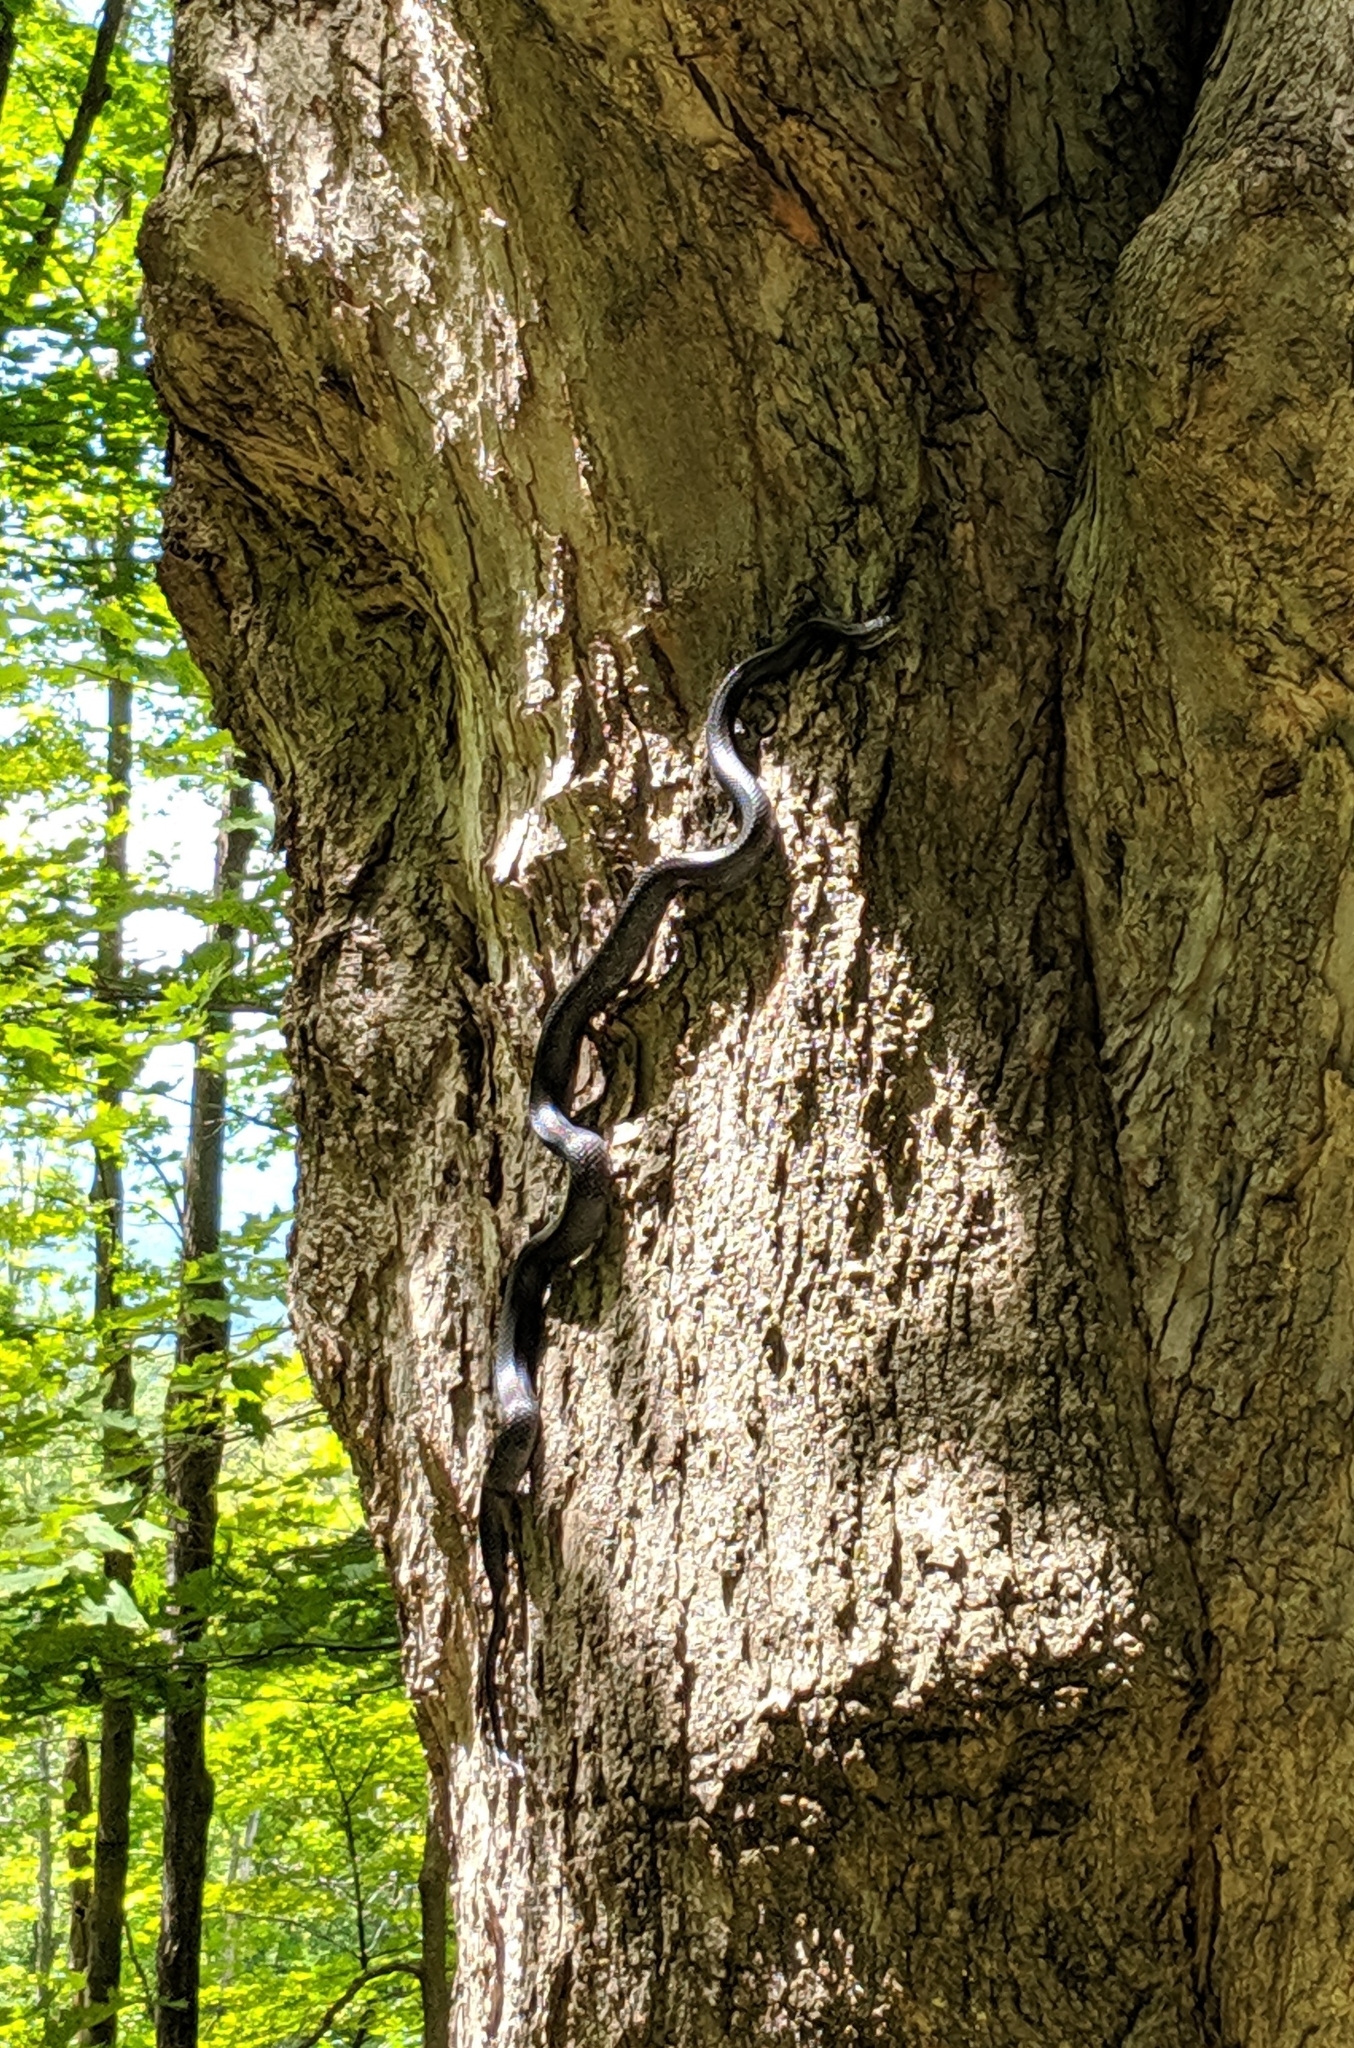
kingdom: Animalia
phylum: Chordata
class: Squamata
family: Colubridae
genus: Pantherophis
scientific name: Pantherophis alleghaniensis
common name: Eastern rat snake
